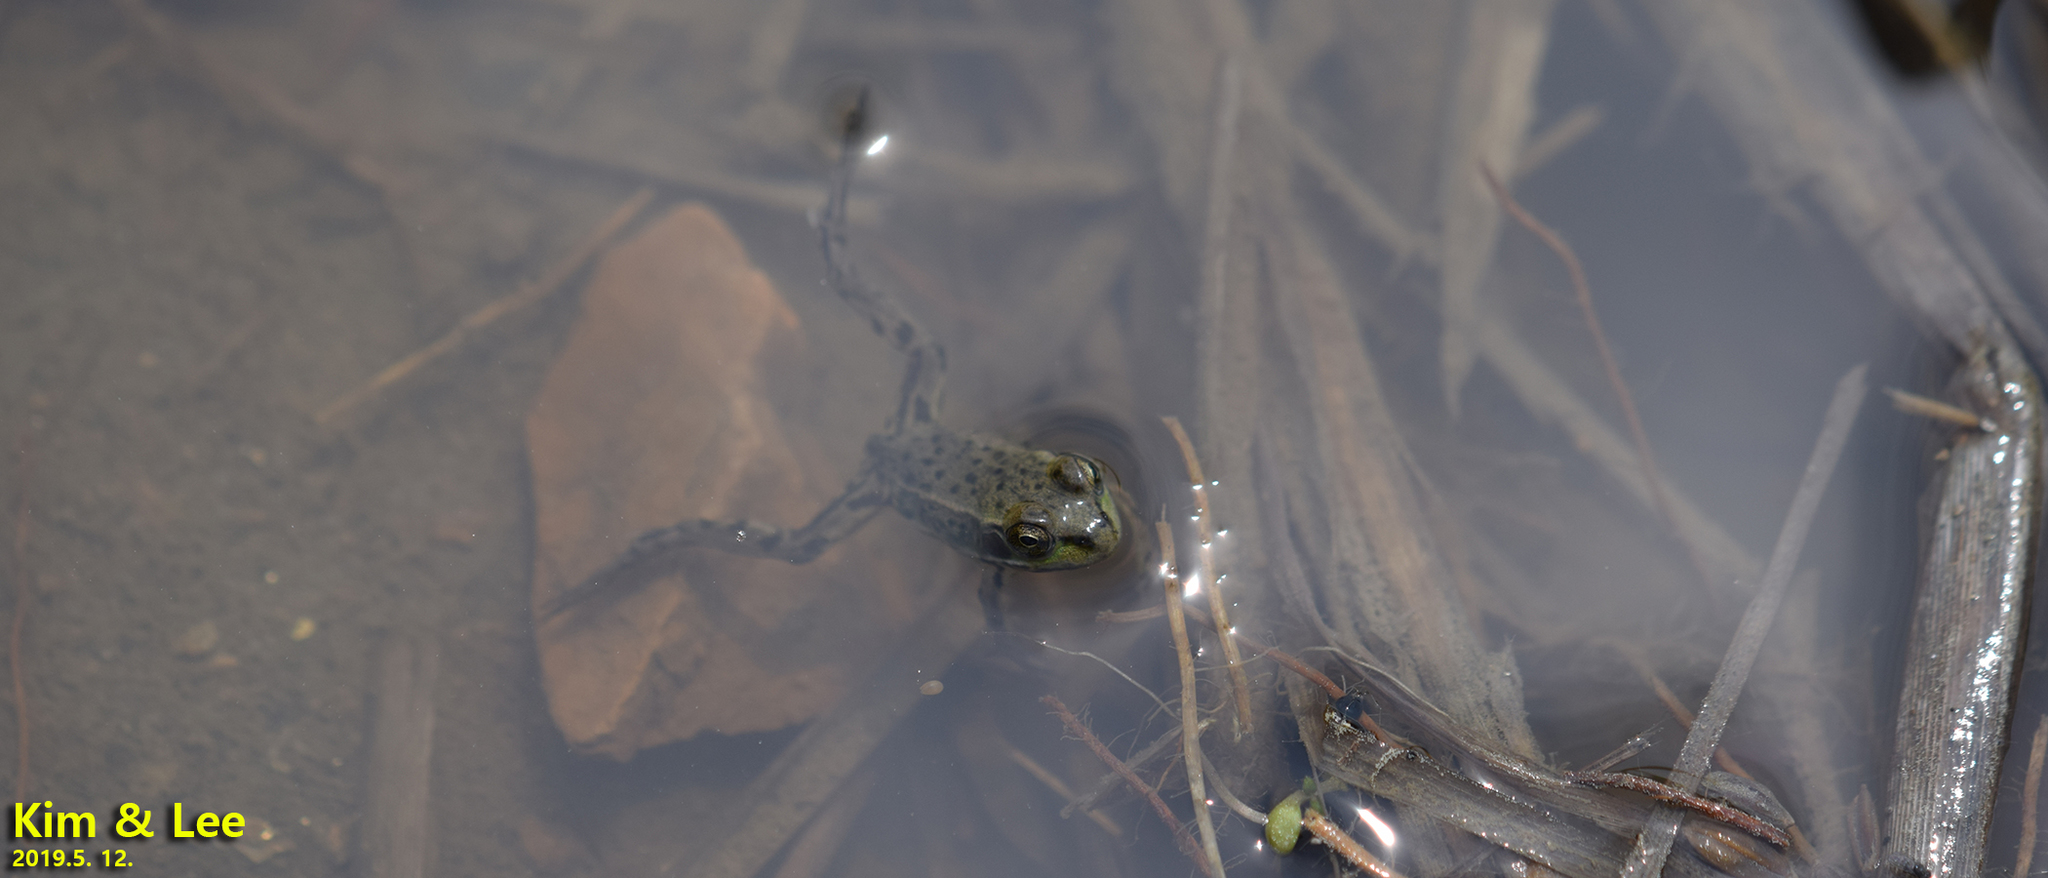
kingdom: Animalia
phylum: Chordata
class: Amphibia
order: Anura
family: Ranidae
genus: Pelophylax
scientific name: Pelophylax chosenicus
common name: Gold-spotted pond frog
